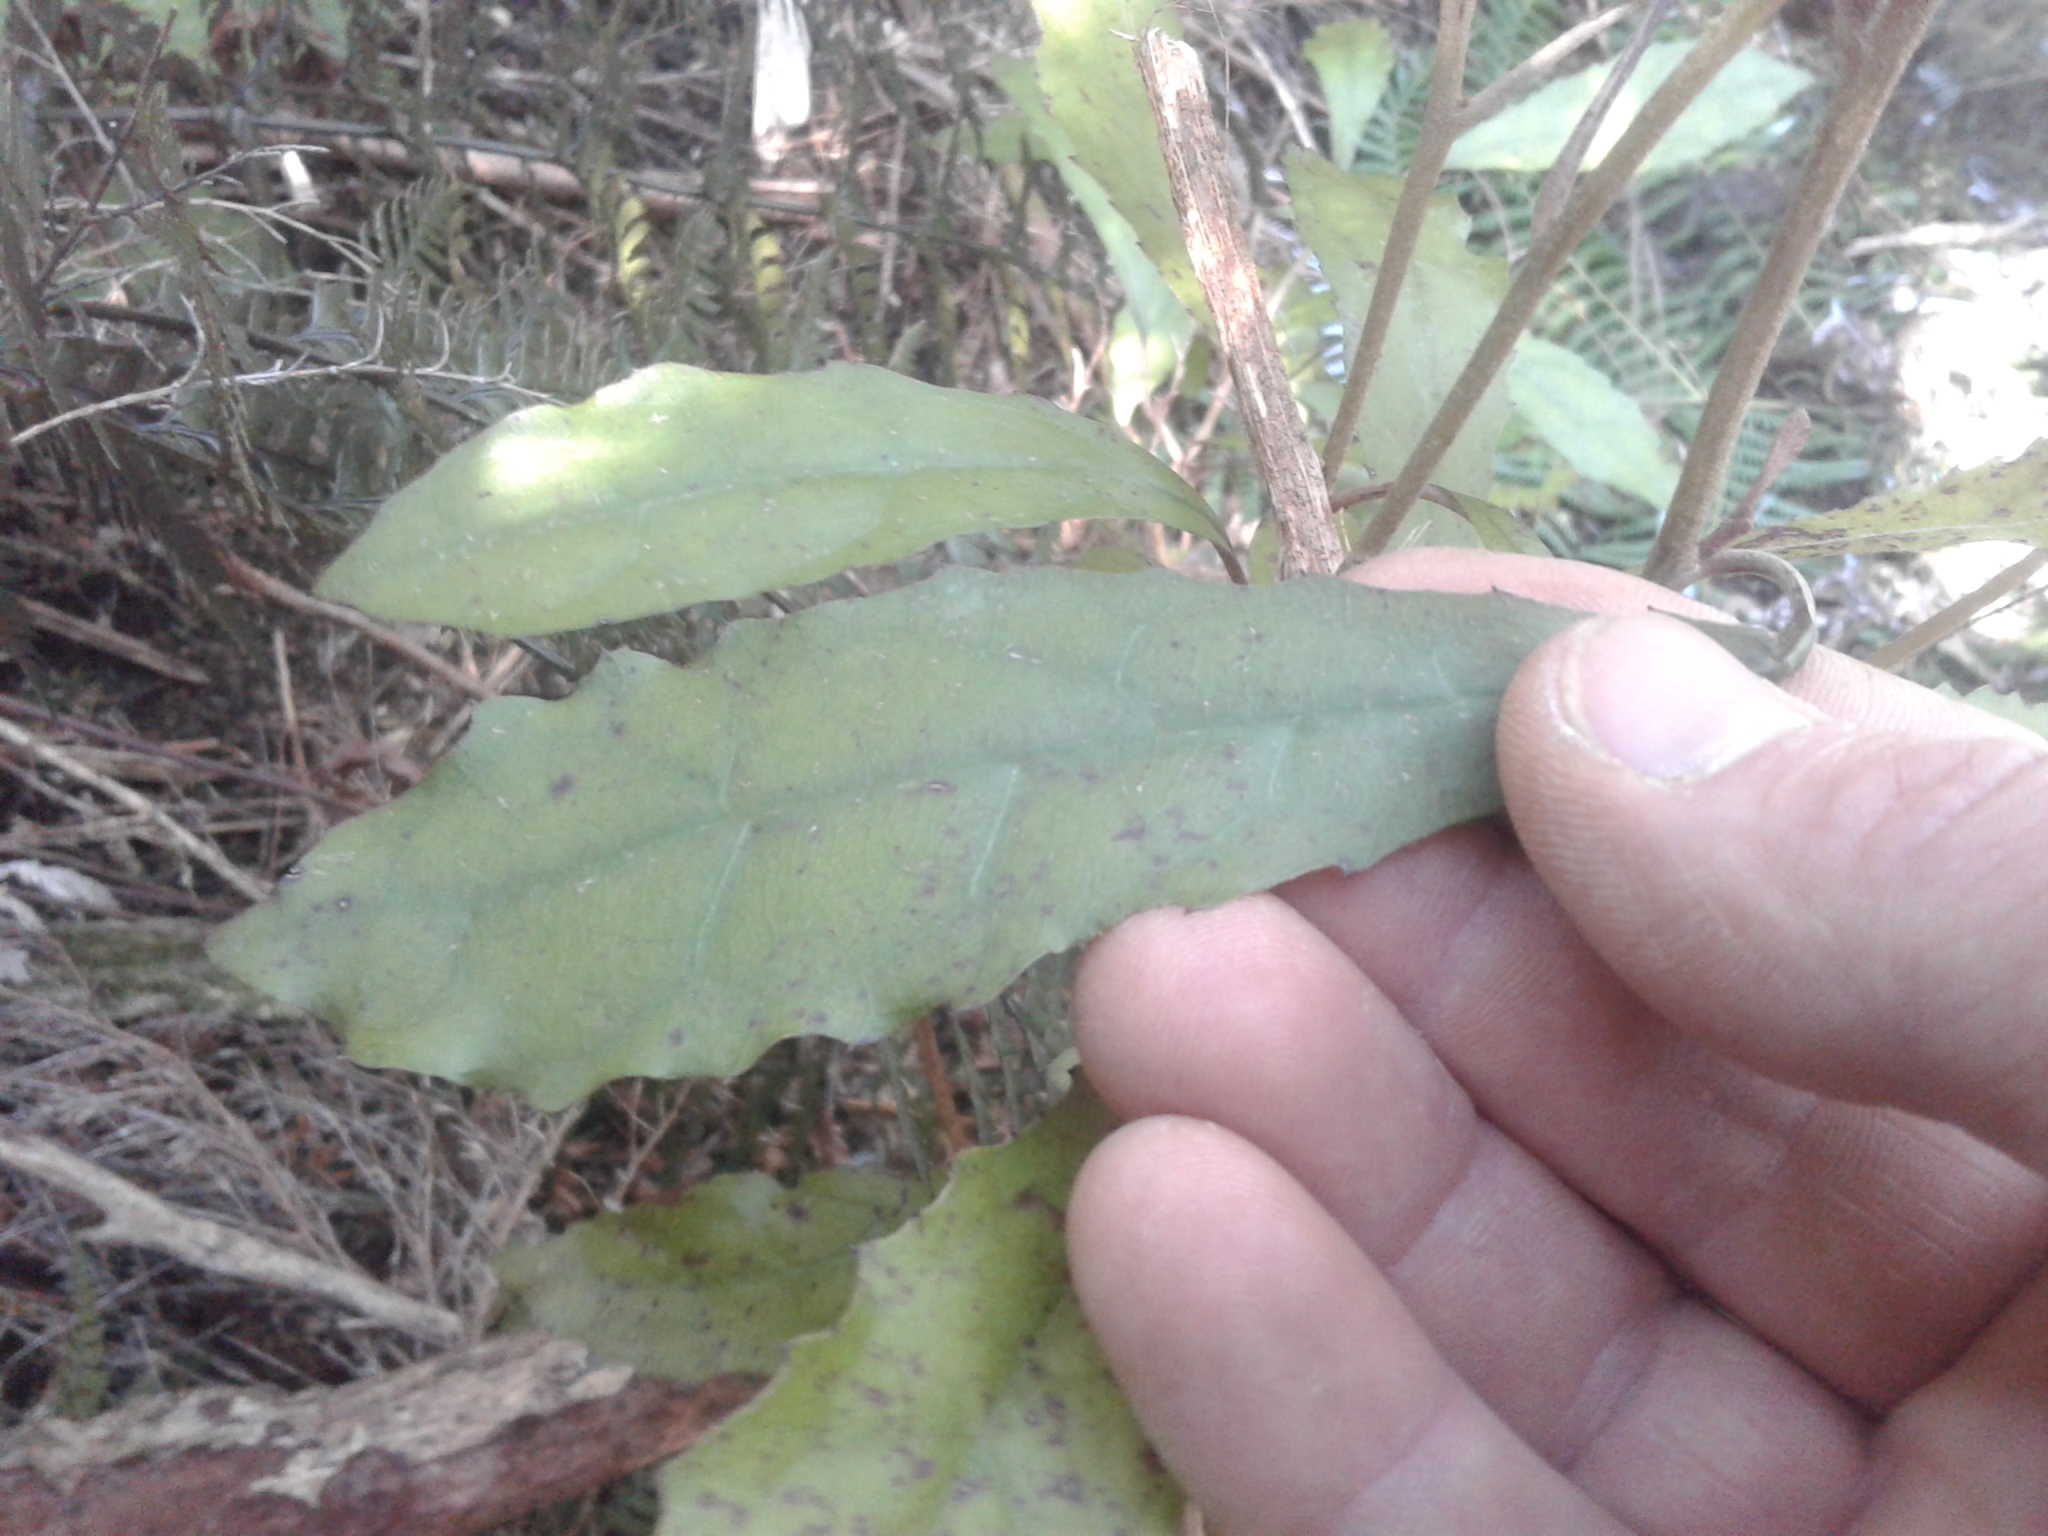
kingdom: Plantae
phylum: Tracheophyta
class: Magnoliopsida
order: Asterales
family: Asteraceae
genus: Olearia
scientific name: Olearia rani
